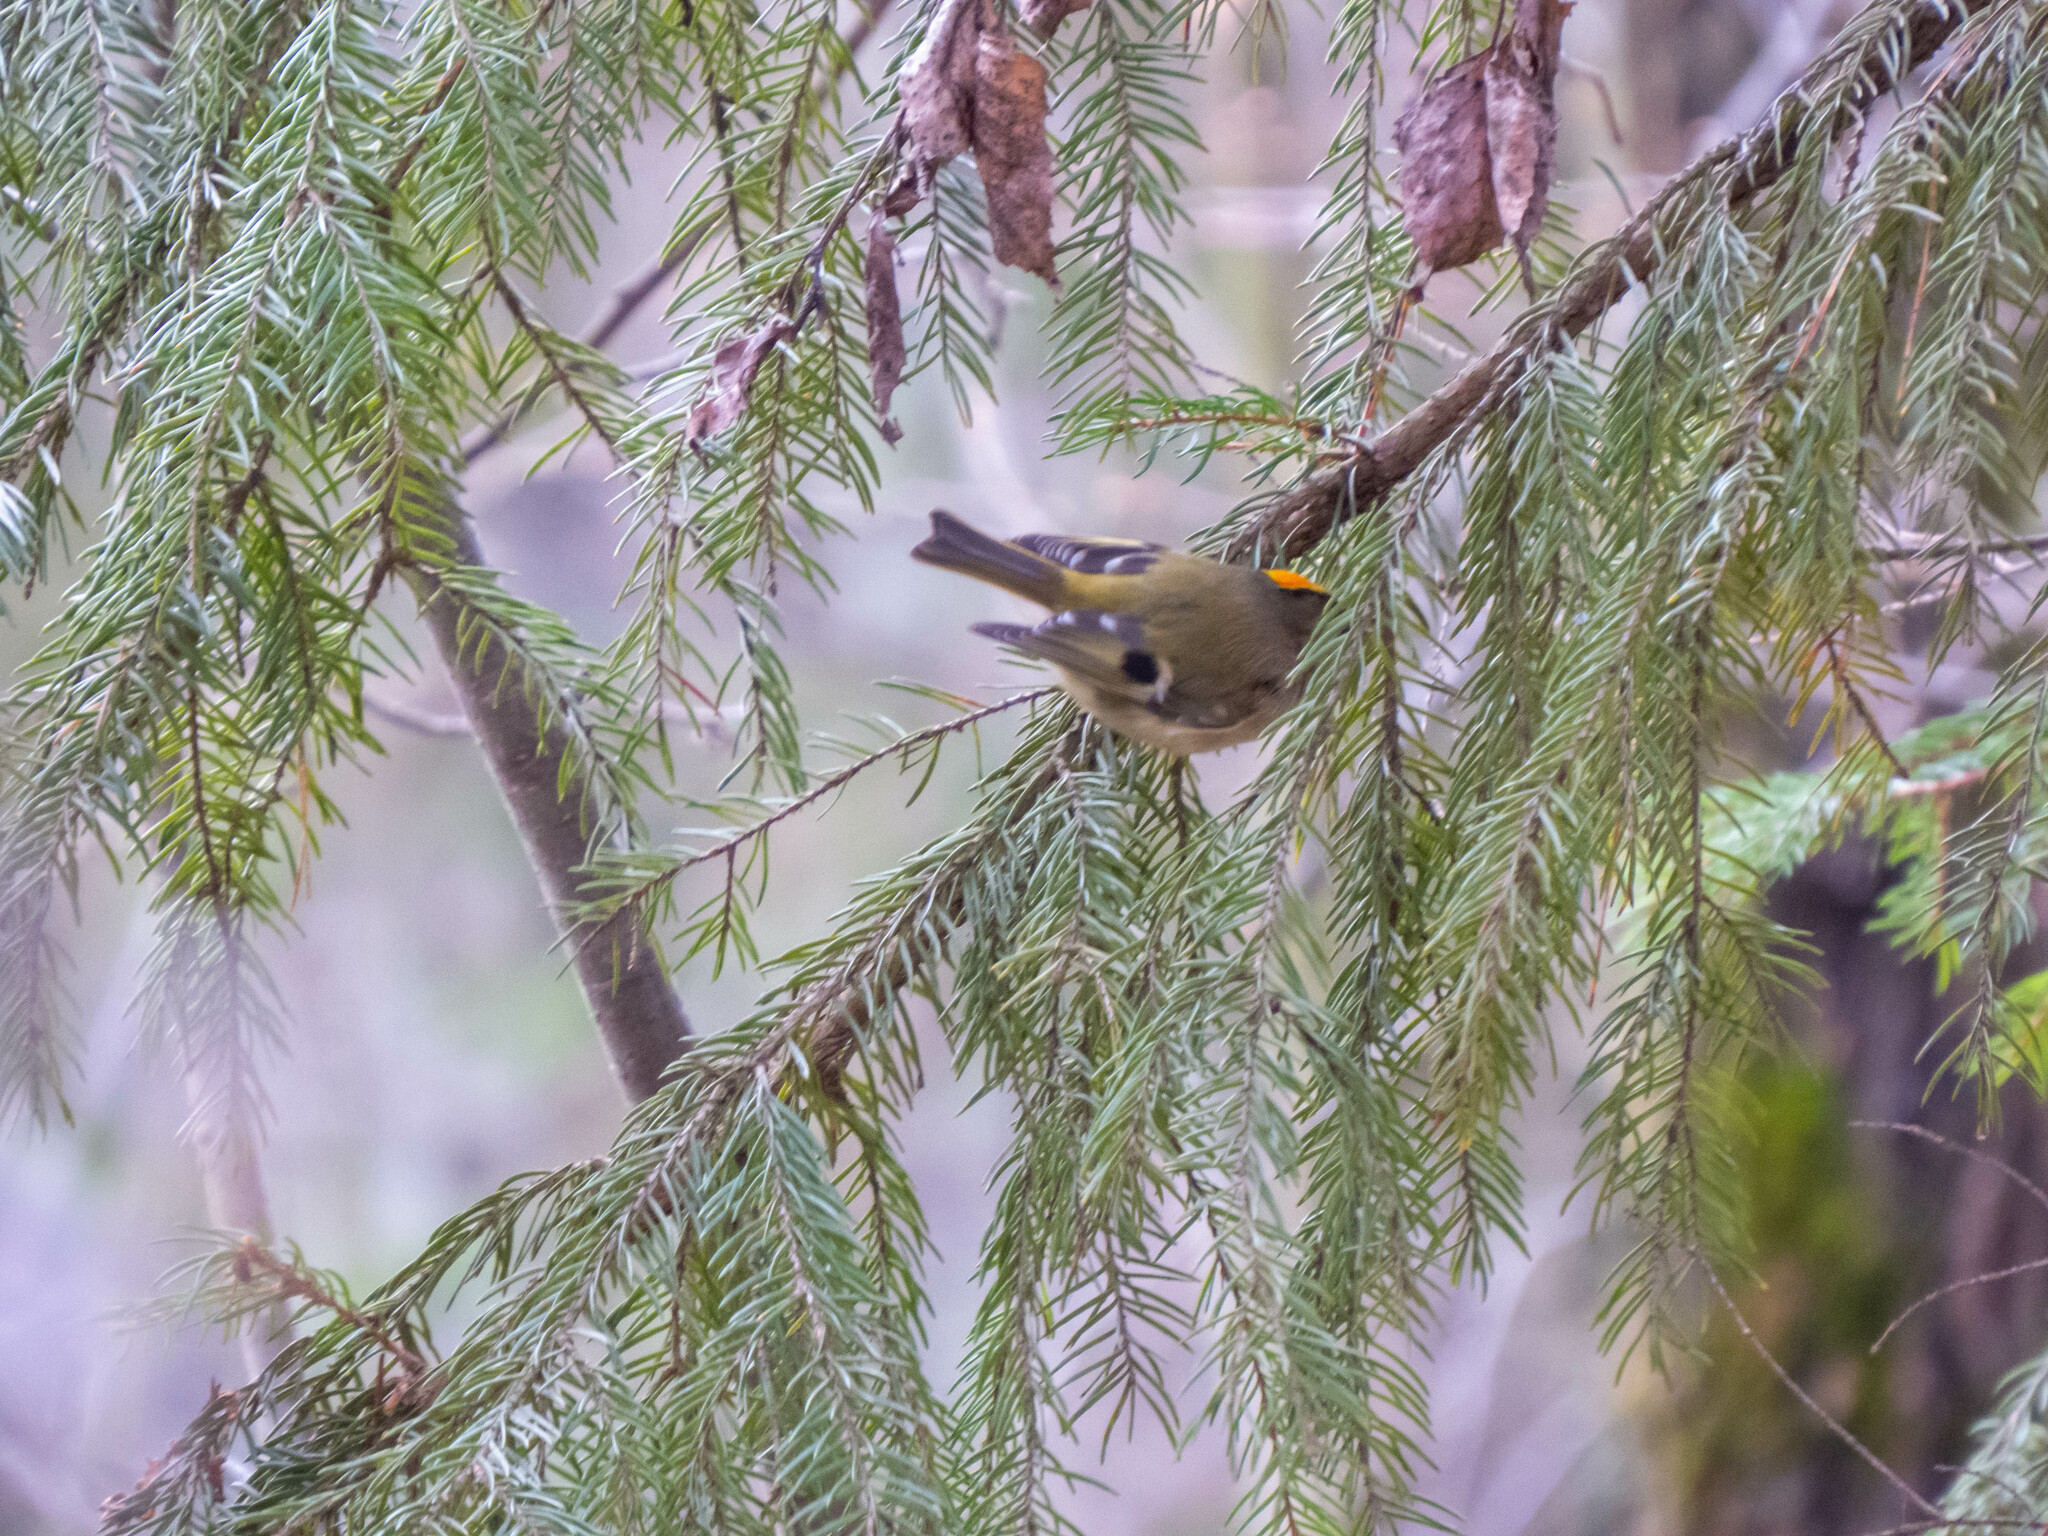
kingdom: Animalia
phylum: Chordata
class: Aves
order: Passeriformes
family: Regulidae
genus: Regulus
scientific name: Regulus regulus
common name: Goldcrest
